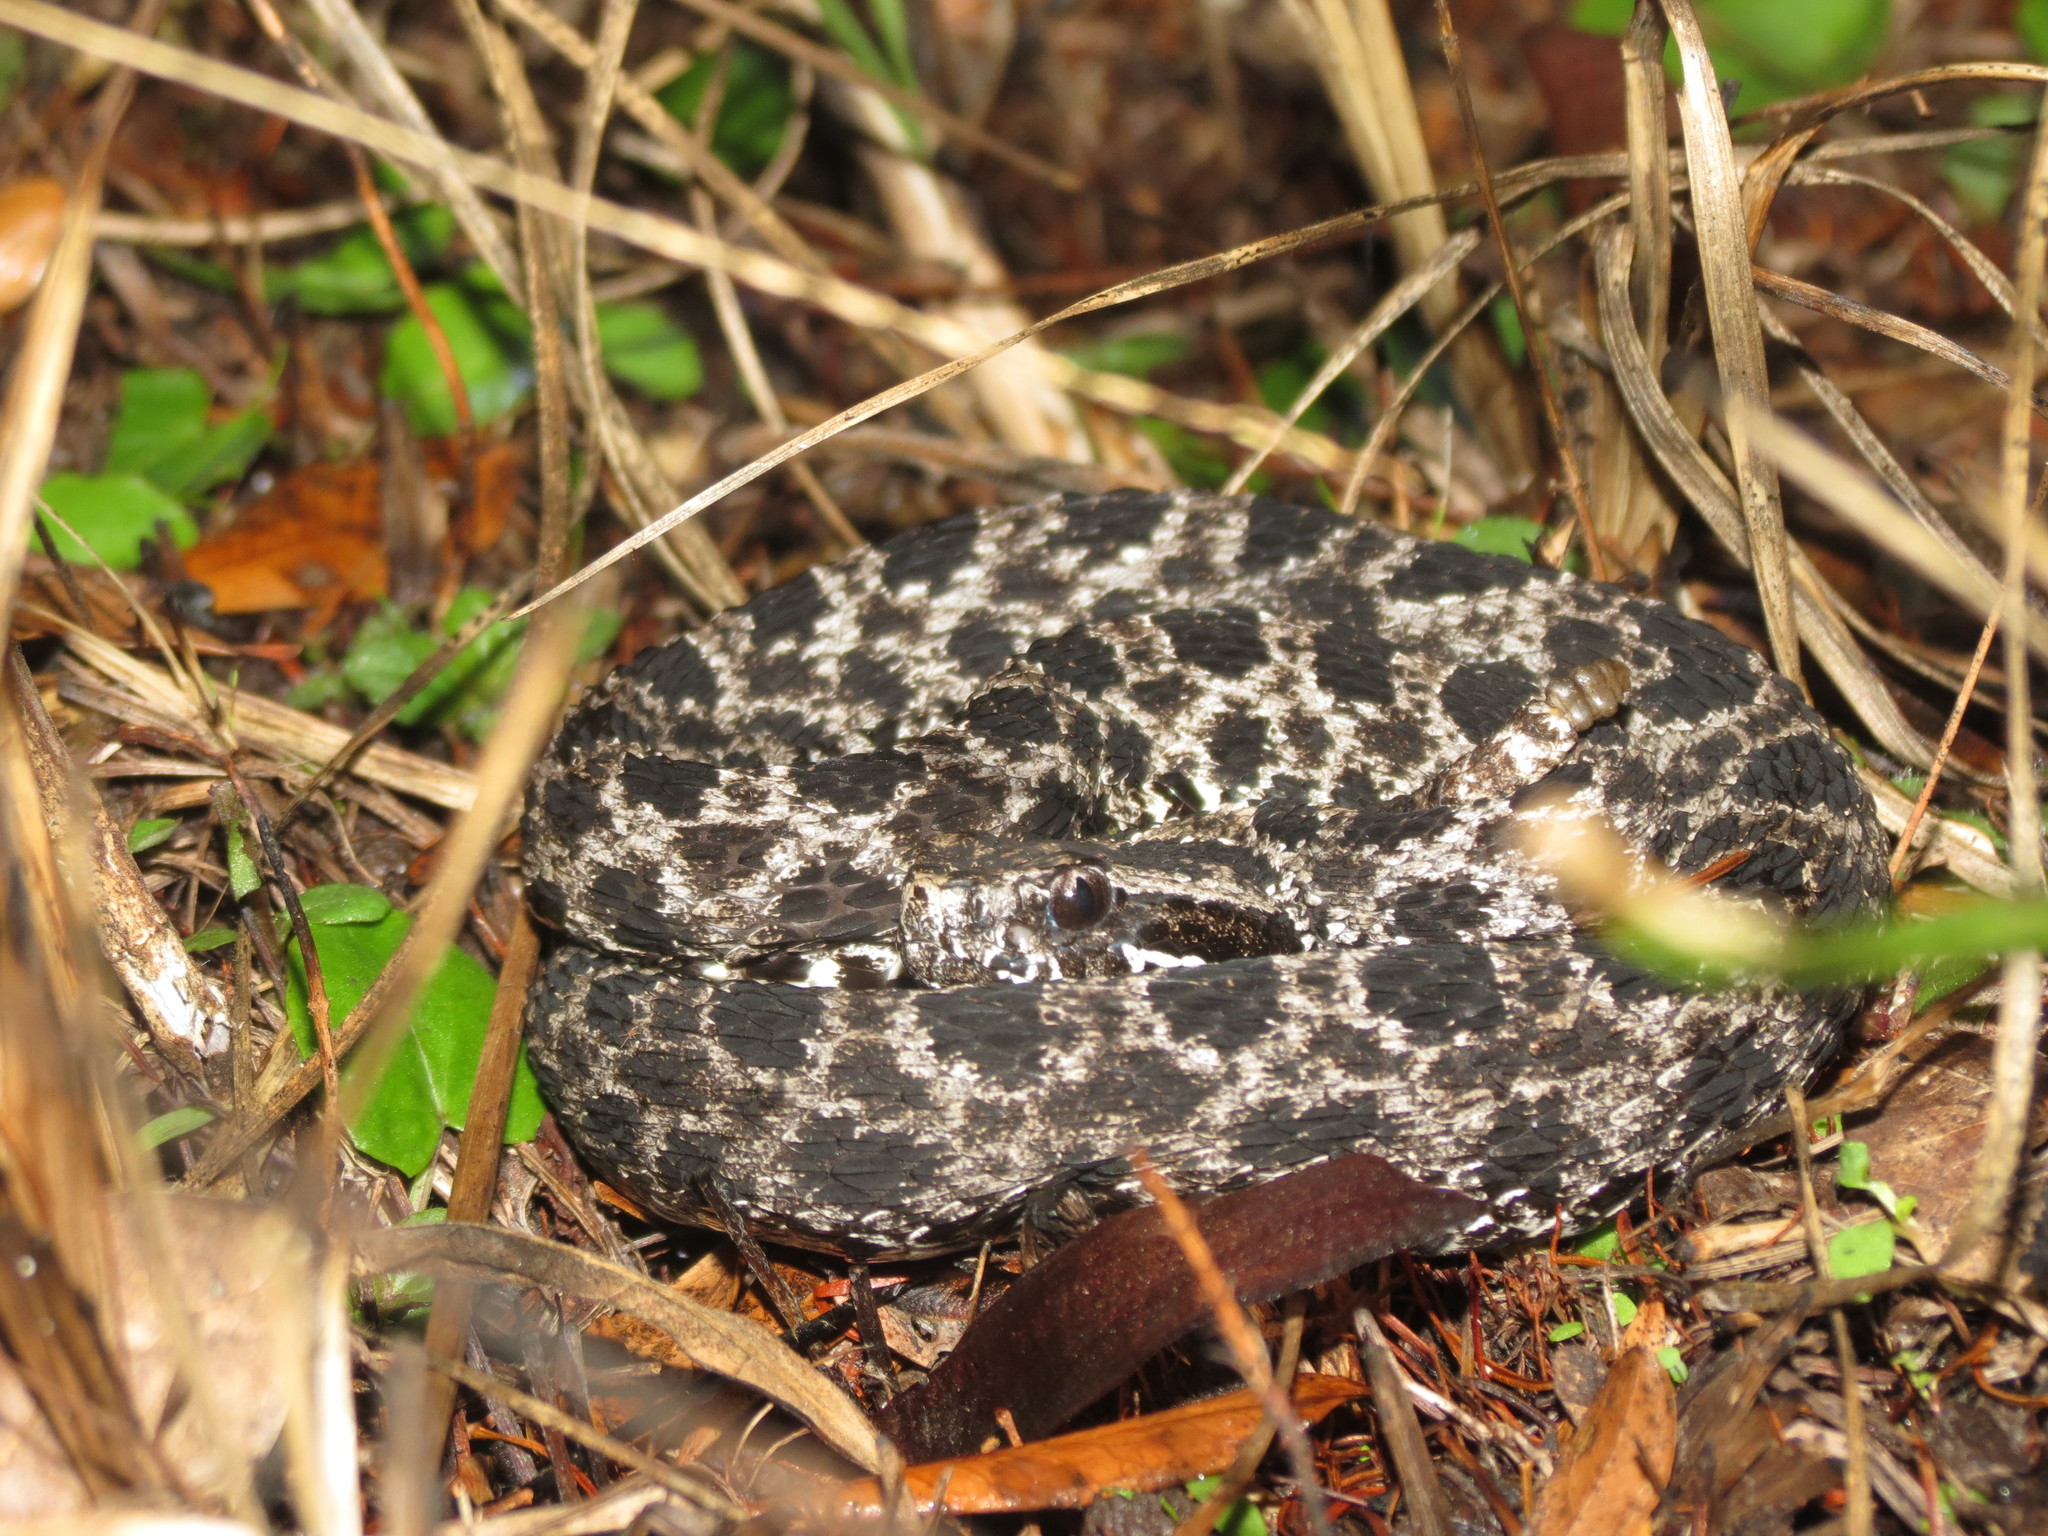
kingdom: Animalia
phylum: Chordata
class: Squamata
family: Viperidae
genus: Sistrurus
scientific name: Sistrurus miliarius
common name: Pygmy rattlesnake
